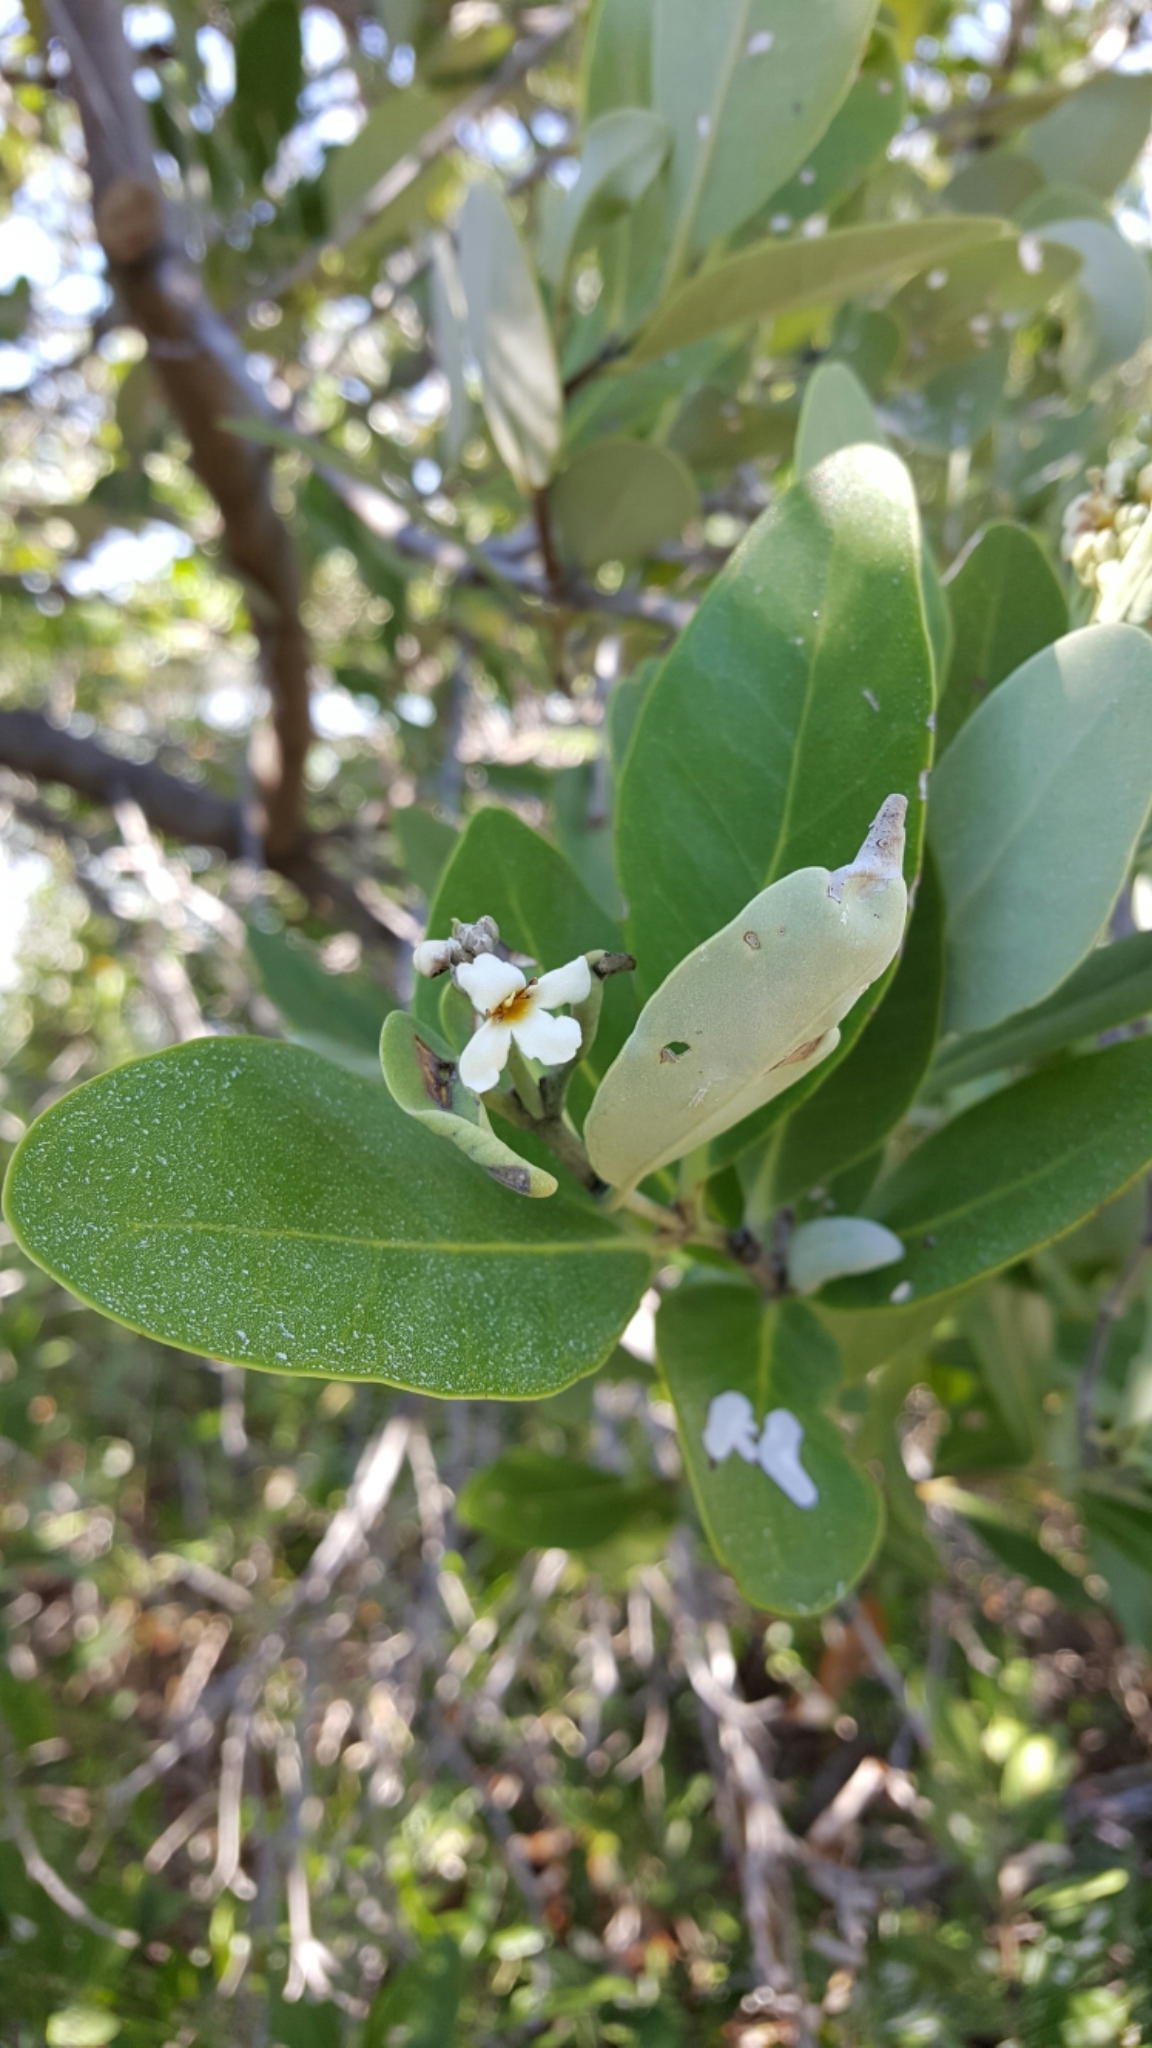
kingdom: Plantae
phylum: Tracheophyta
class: Magnoliopsida
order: Lamiales
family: Acanthaceae
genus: Avicennia
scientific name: Avicennia germinans
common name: Black mangrove
